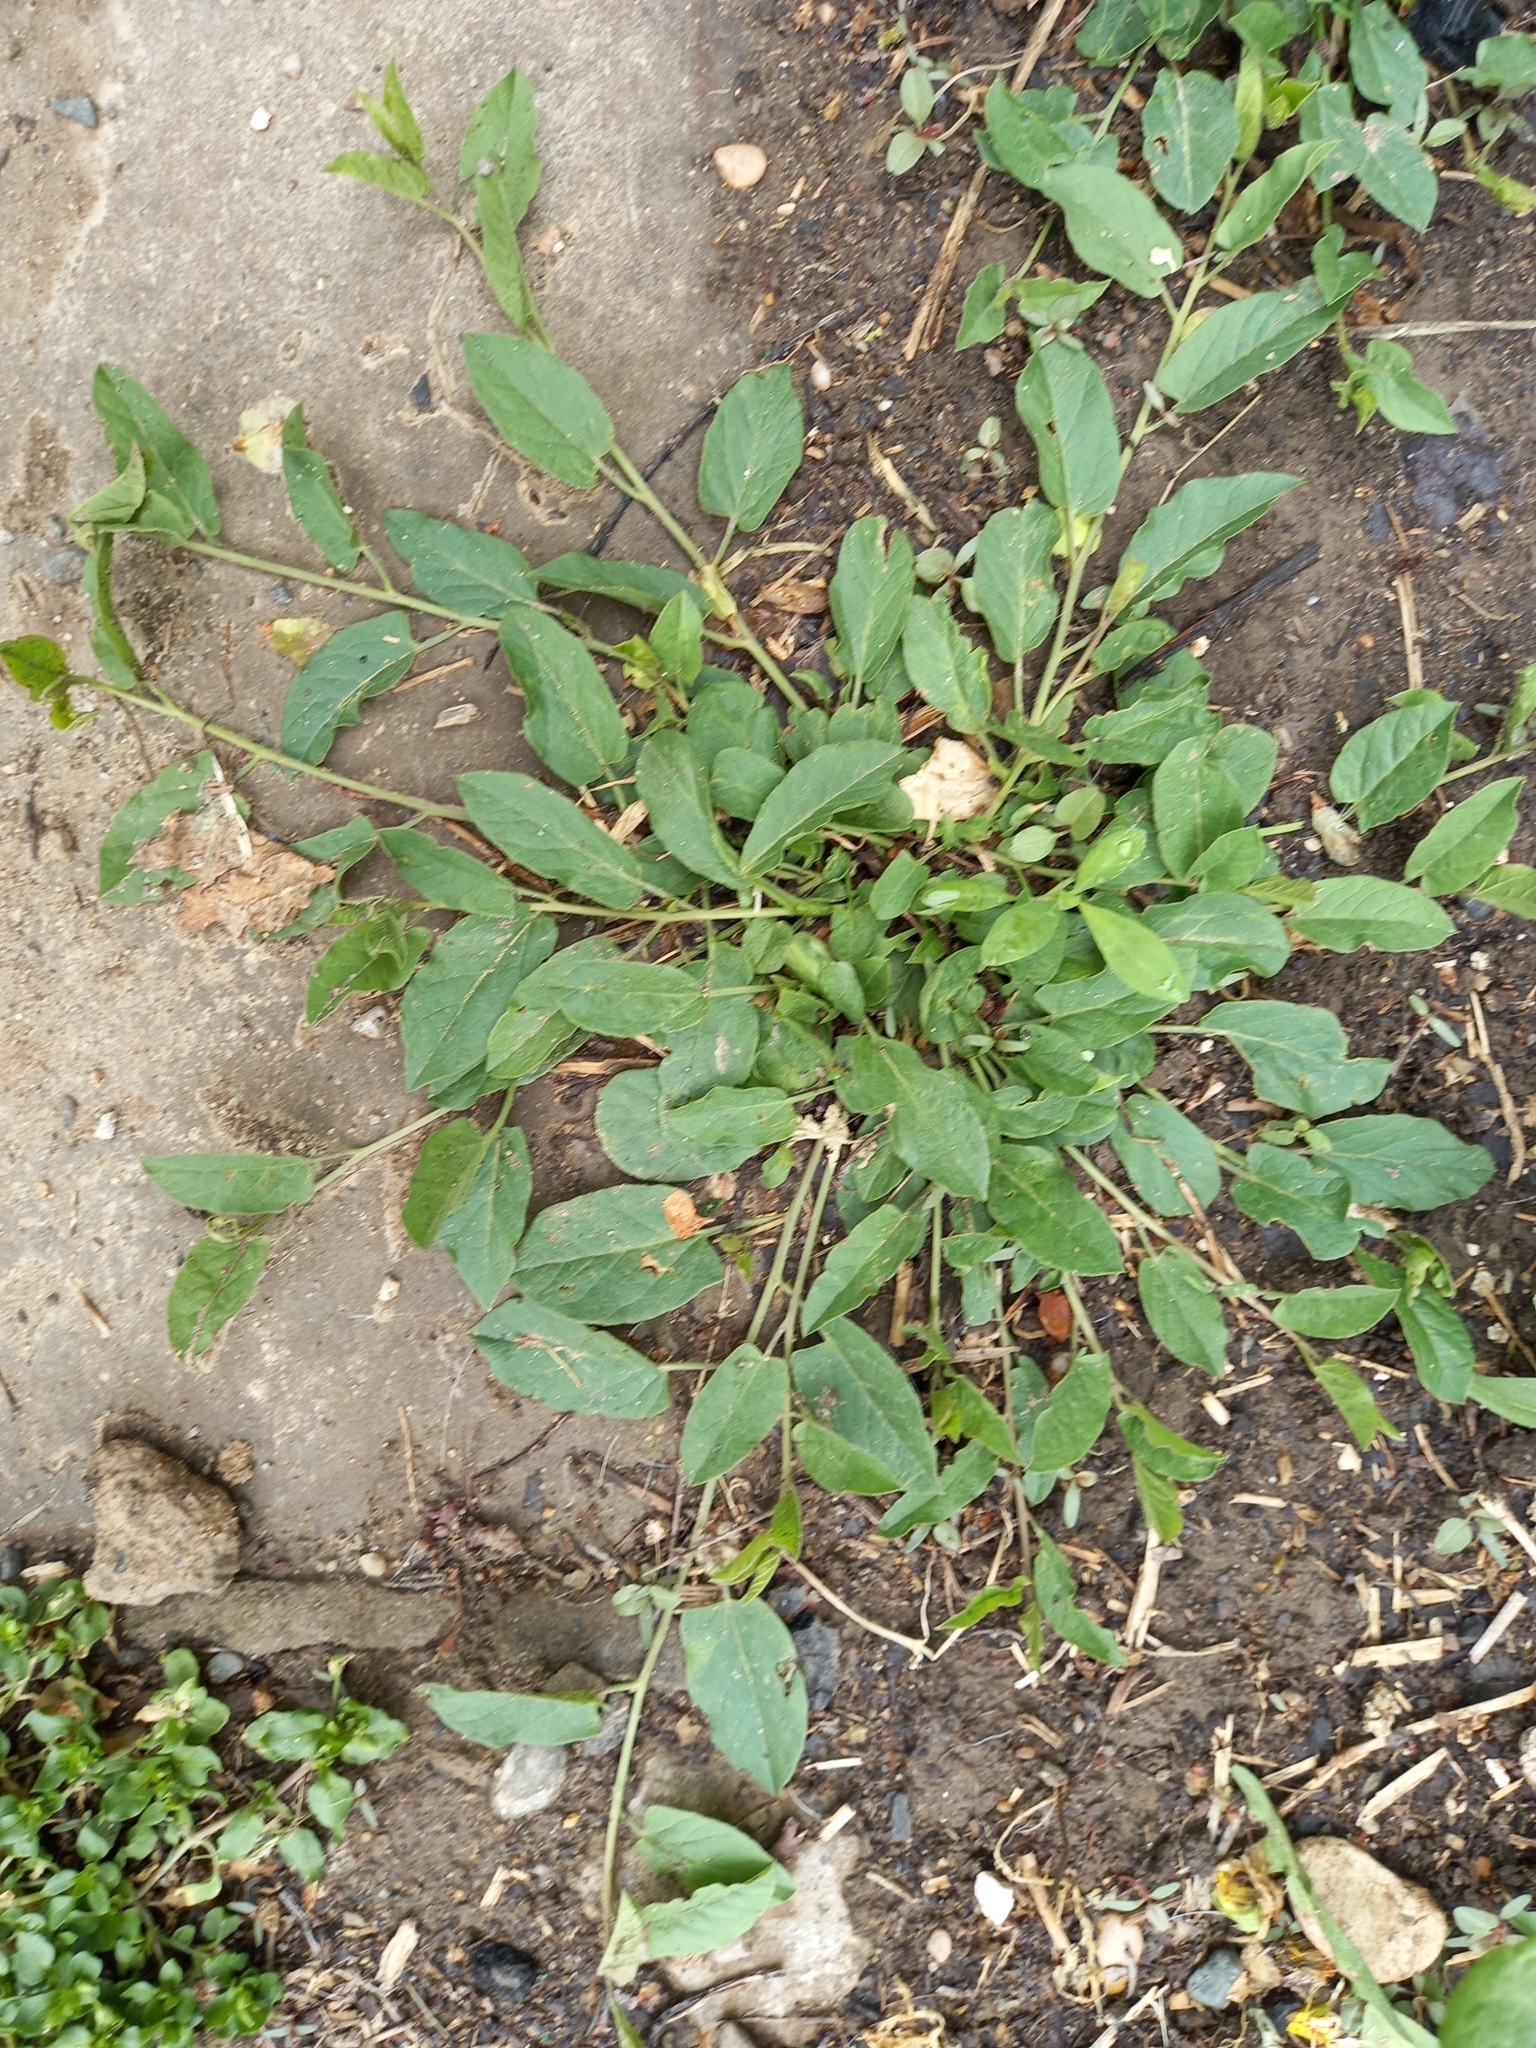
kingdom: Plantae
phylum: Tracheophyta
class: Magnoliopsida
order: Solanales
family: Convolvulaceae
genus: Convolvulus
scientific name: Convolvulus arvensis
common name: Field bindweed
